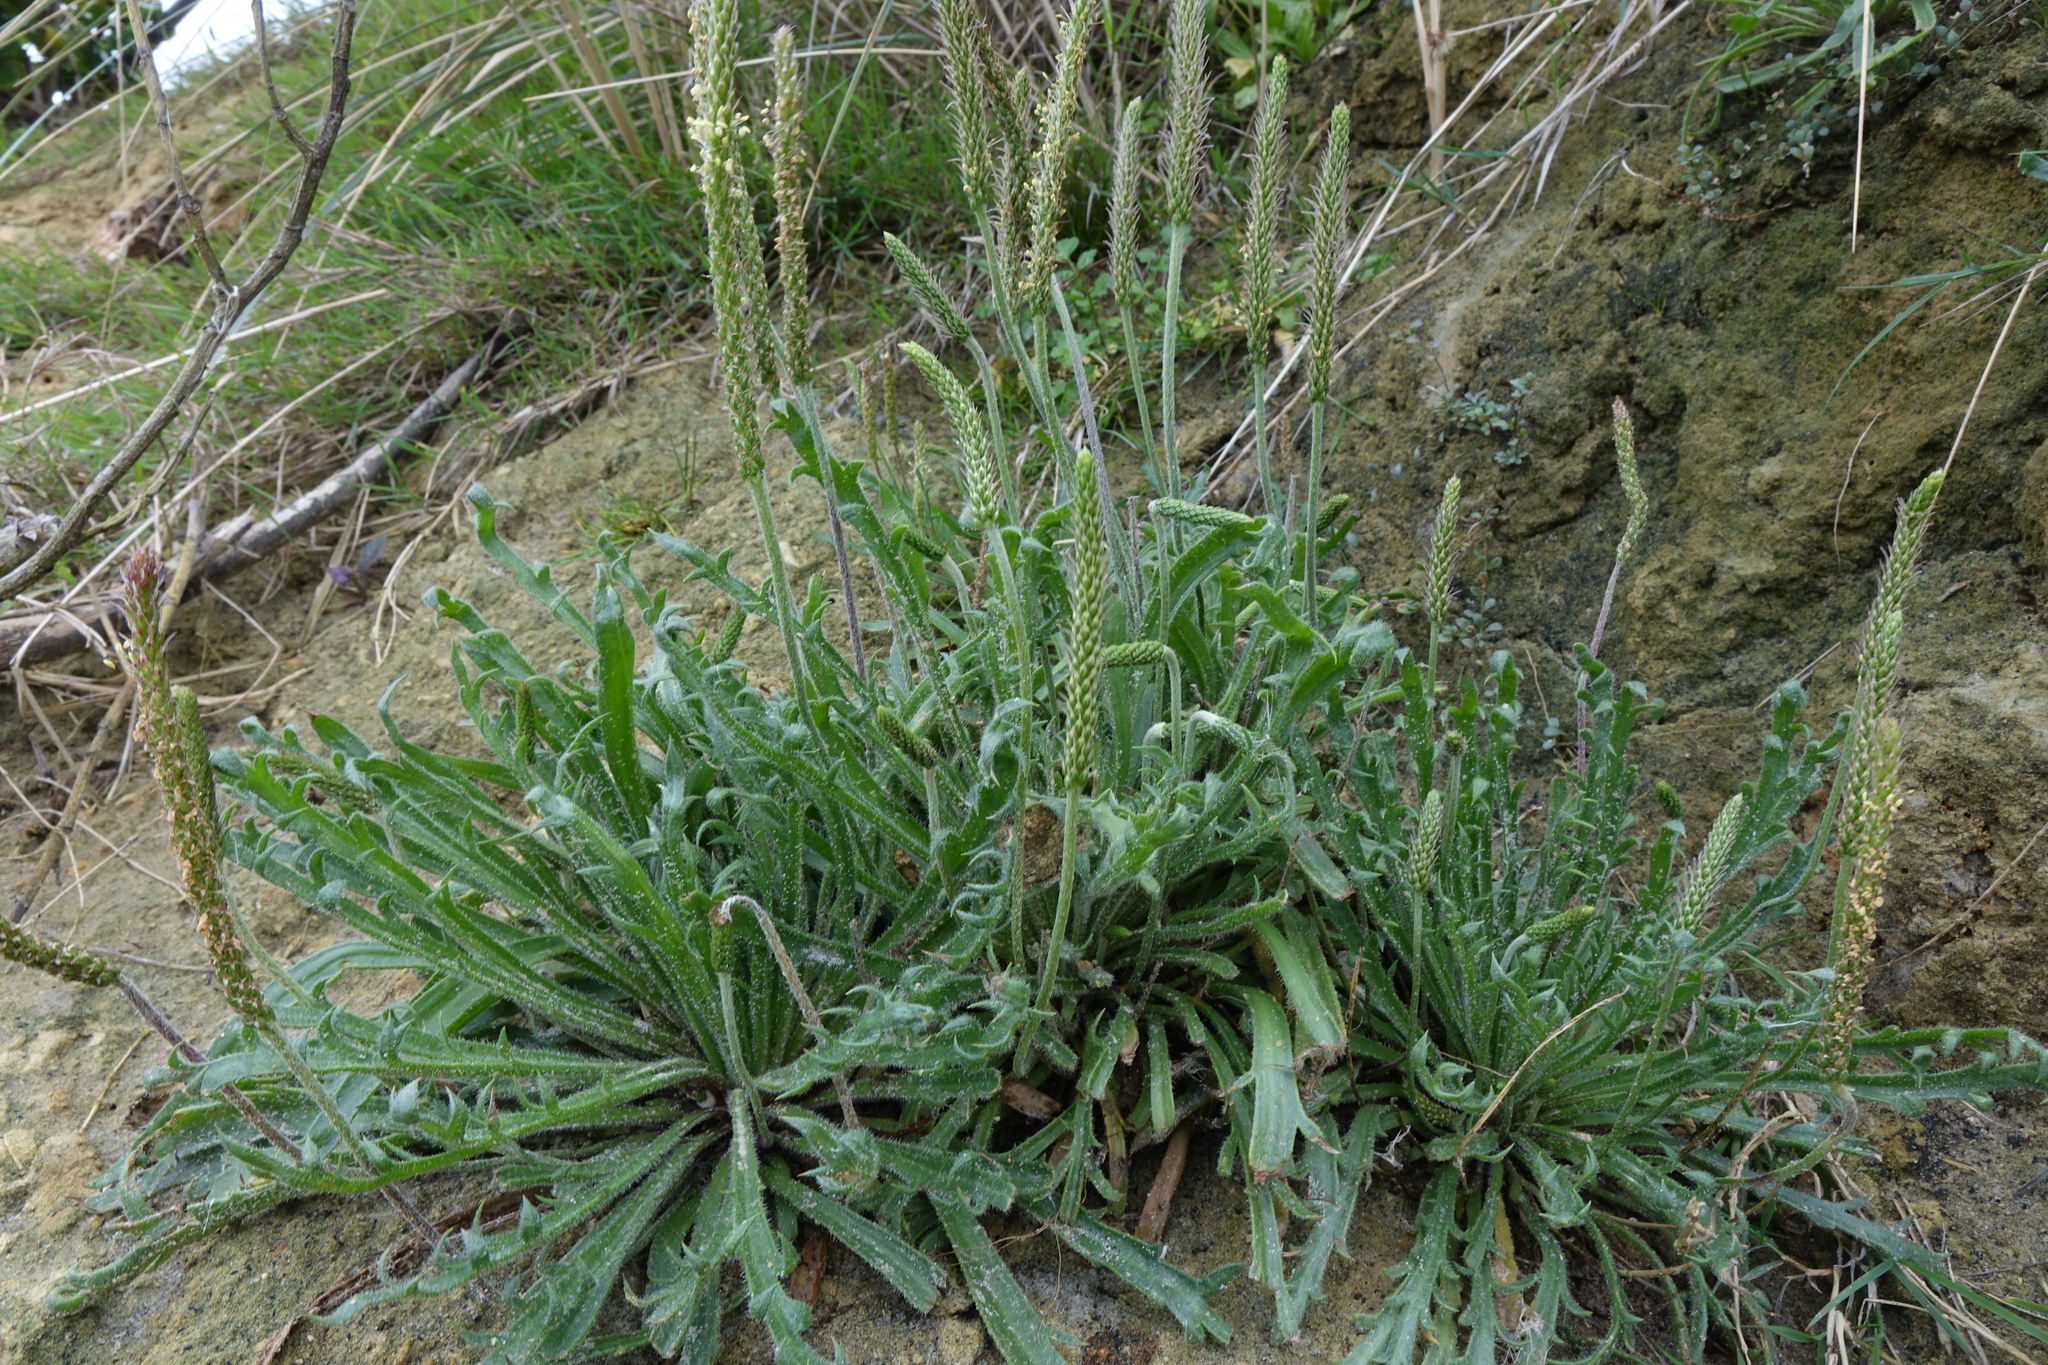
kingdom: Plantae
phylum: Tracheophyta
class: Magnoliopsida
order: Lamiales
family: Plantaginaceae
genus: Plantago
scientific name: Plantago coronopus
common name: Buck's-horn plantain
